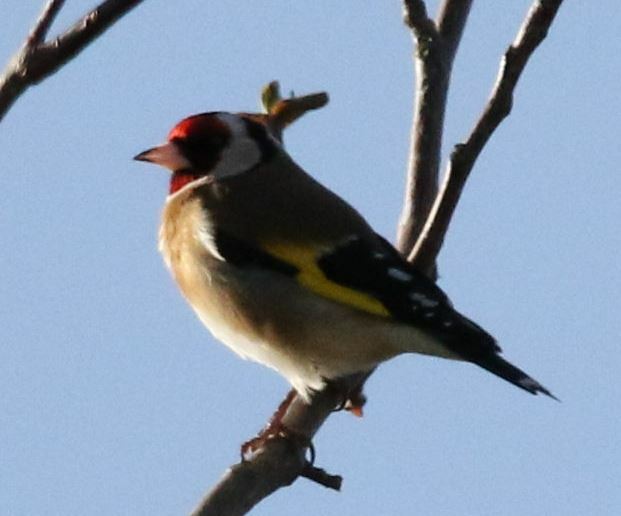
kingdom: Animalia
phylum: Chordata
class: Aves
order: Passeriformes
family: Fringillidae
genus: Carduelis
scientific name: Carduelis carduelis
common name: European goldfinch
